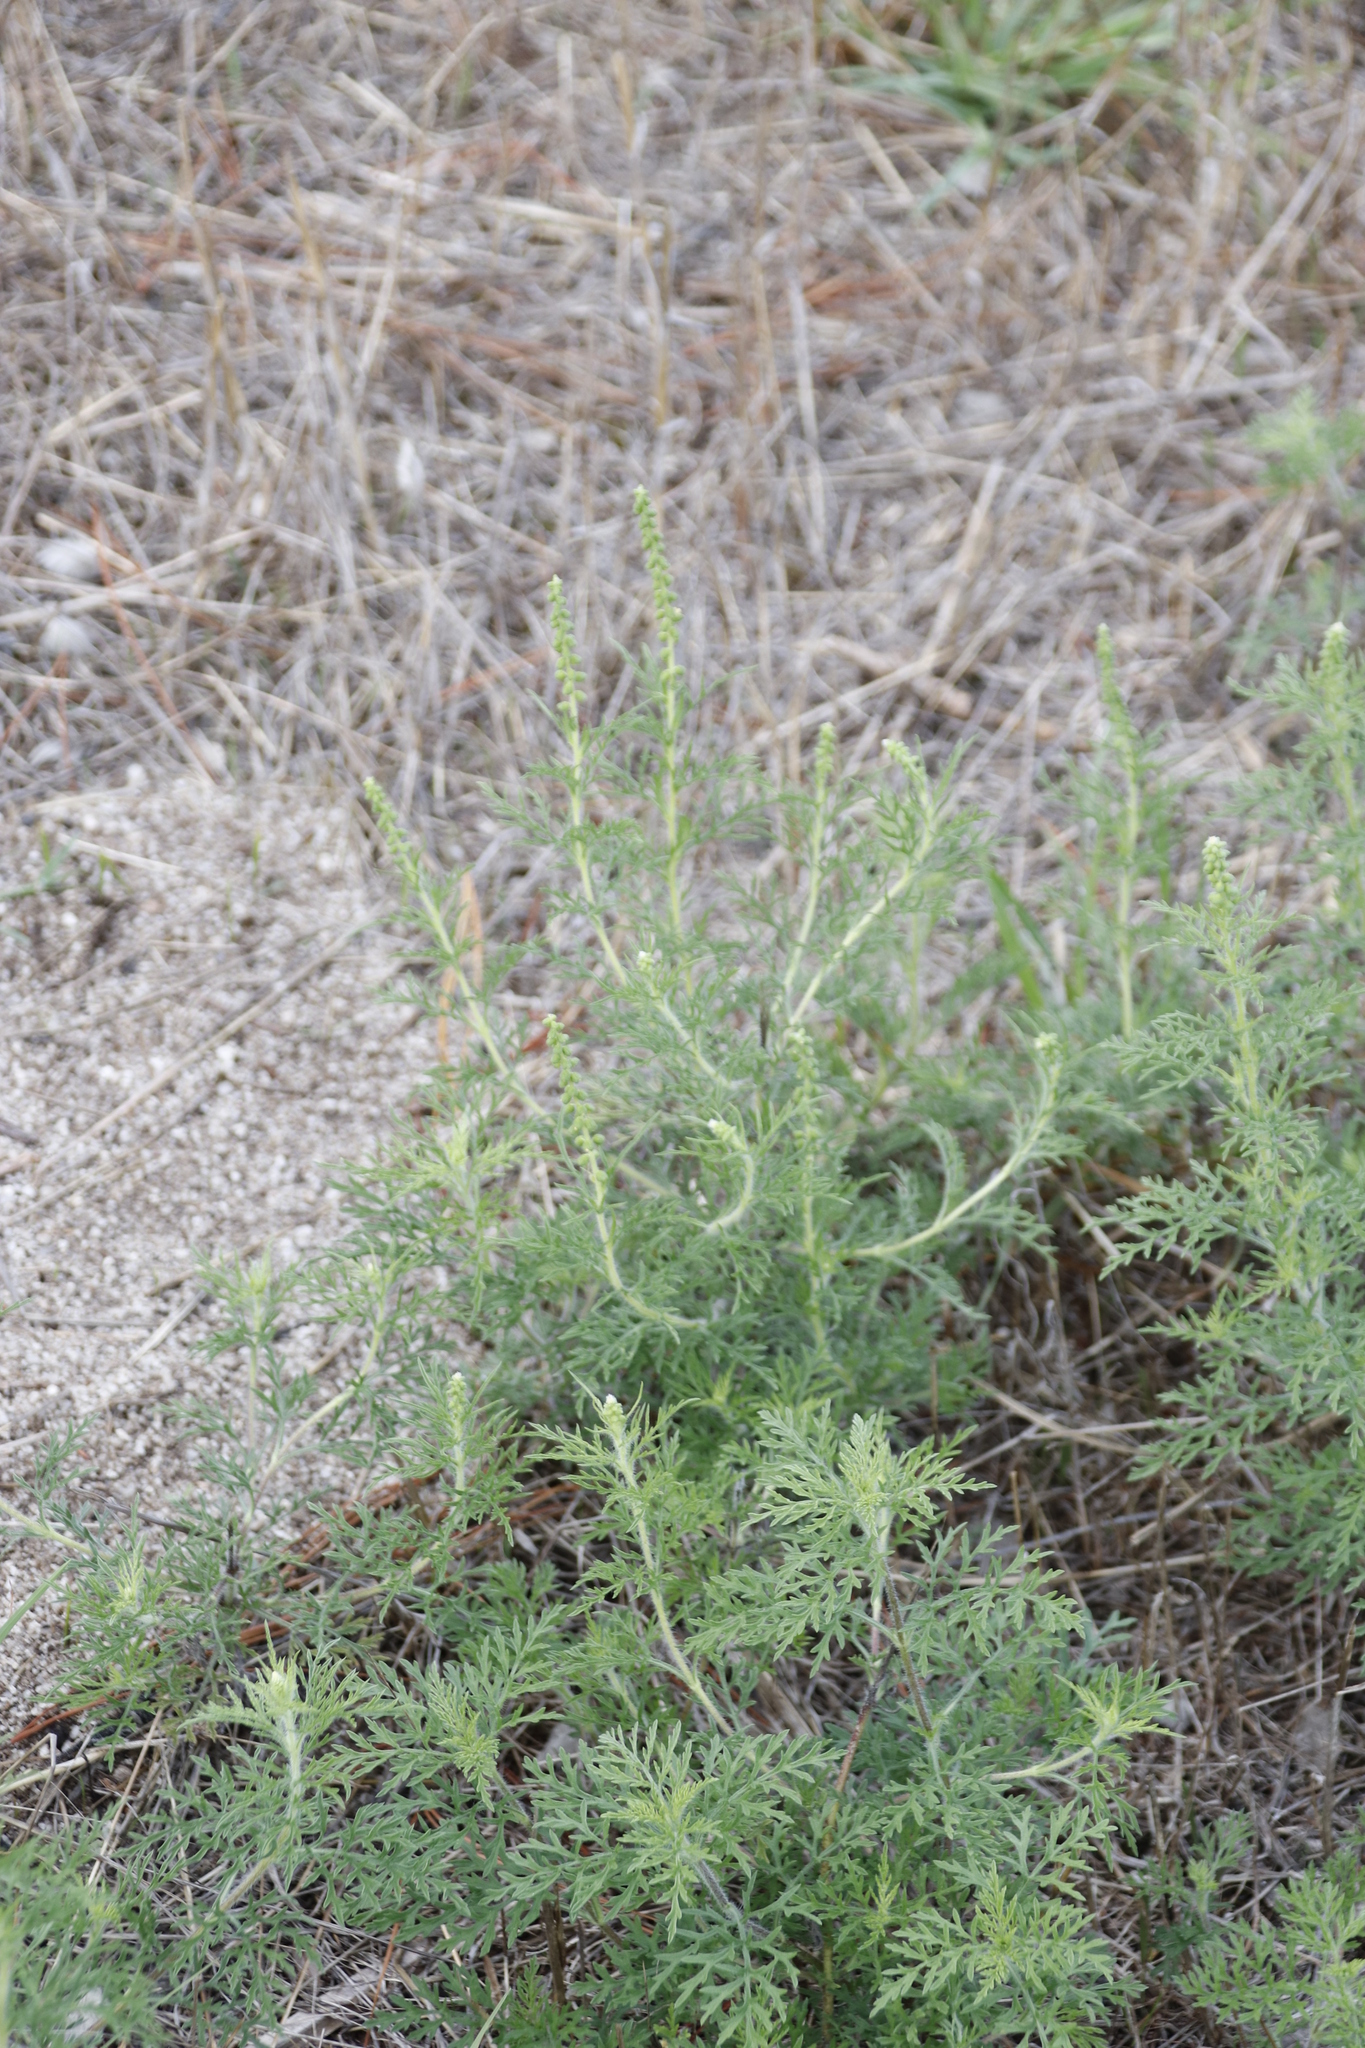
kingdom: Plantae
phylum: Tracheophyta
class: Magnoliopsida
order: Asterales
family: Asteraceae
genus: Ambrosia
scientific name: Ambrosia tenuifolia
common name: Lacy ambrosia
